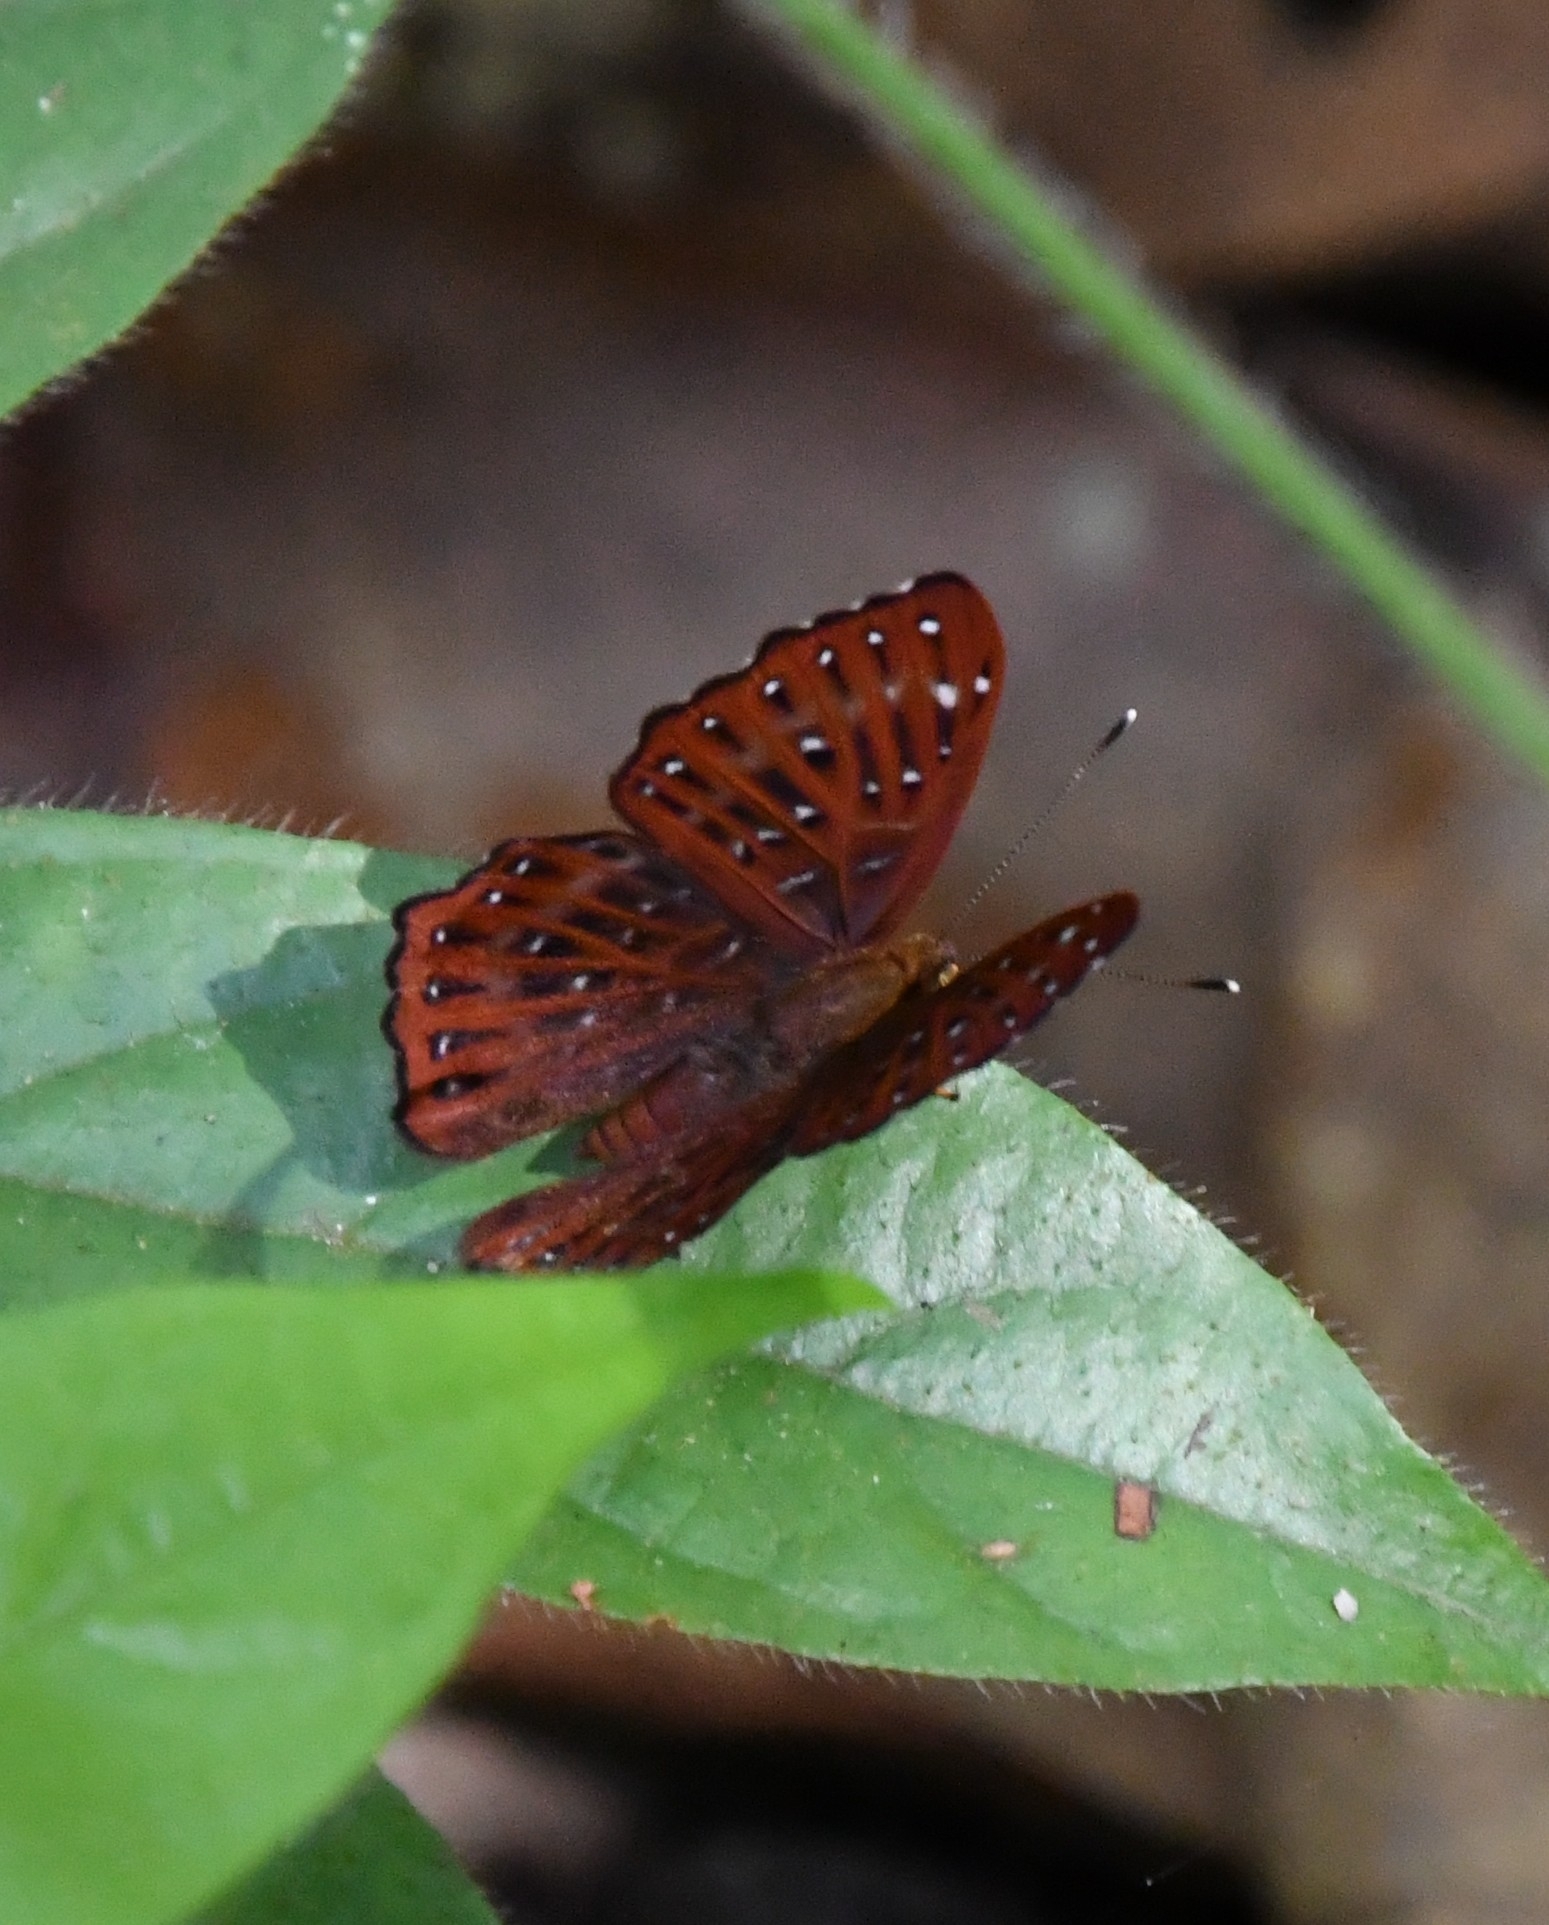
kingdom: Animalia
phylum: Arthropoda
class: Insecta
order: Lepidoptera
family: Riodinidae
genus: Zemeros
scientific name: Zemeros flegyas
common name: Punchinello
